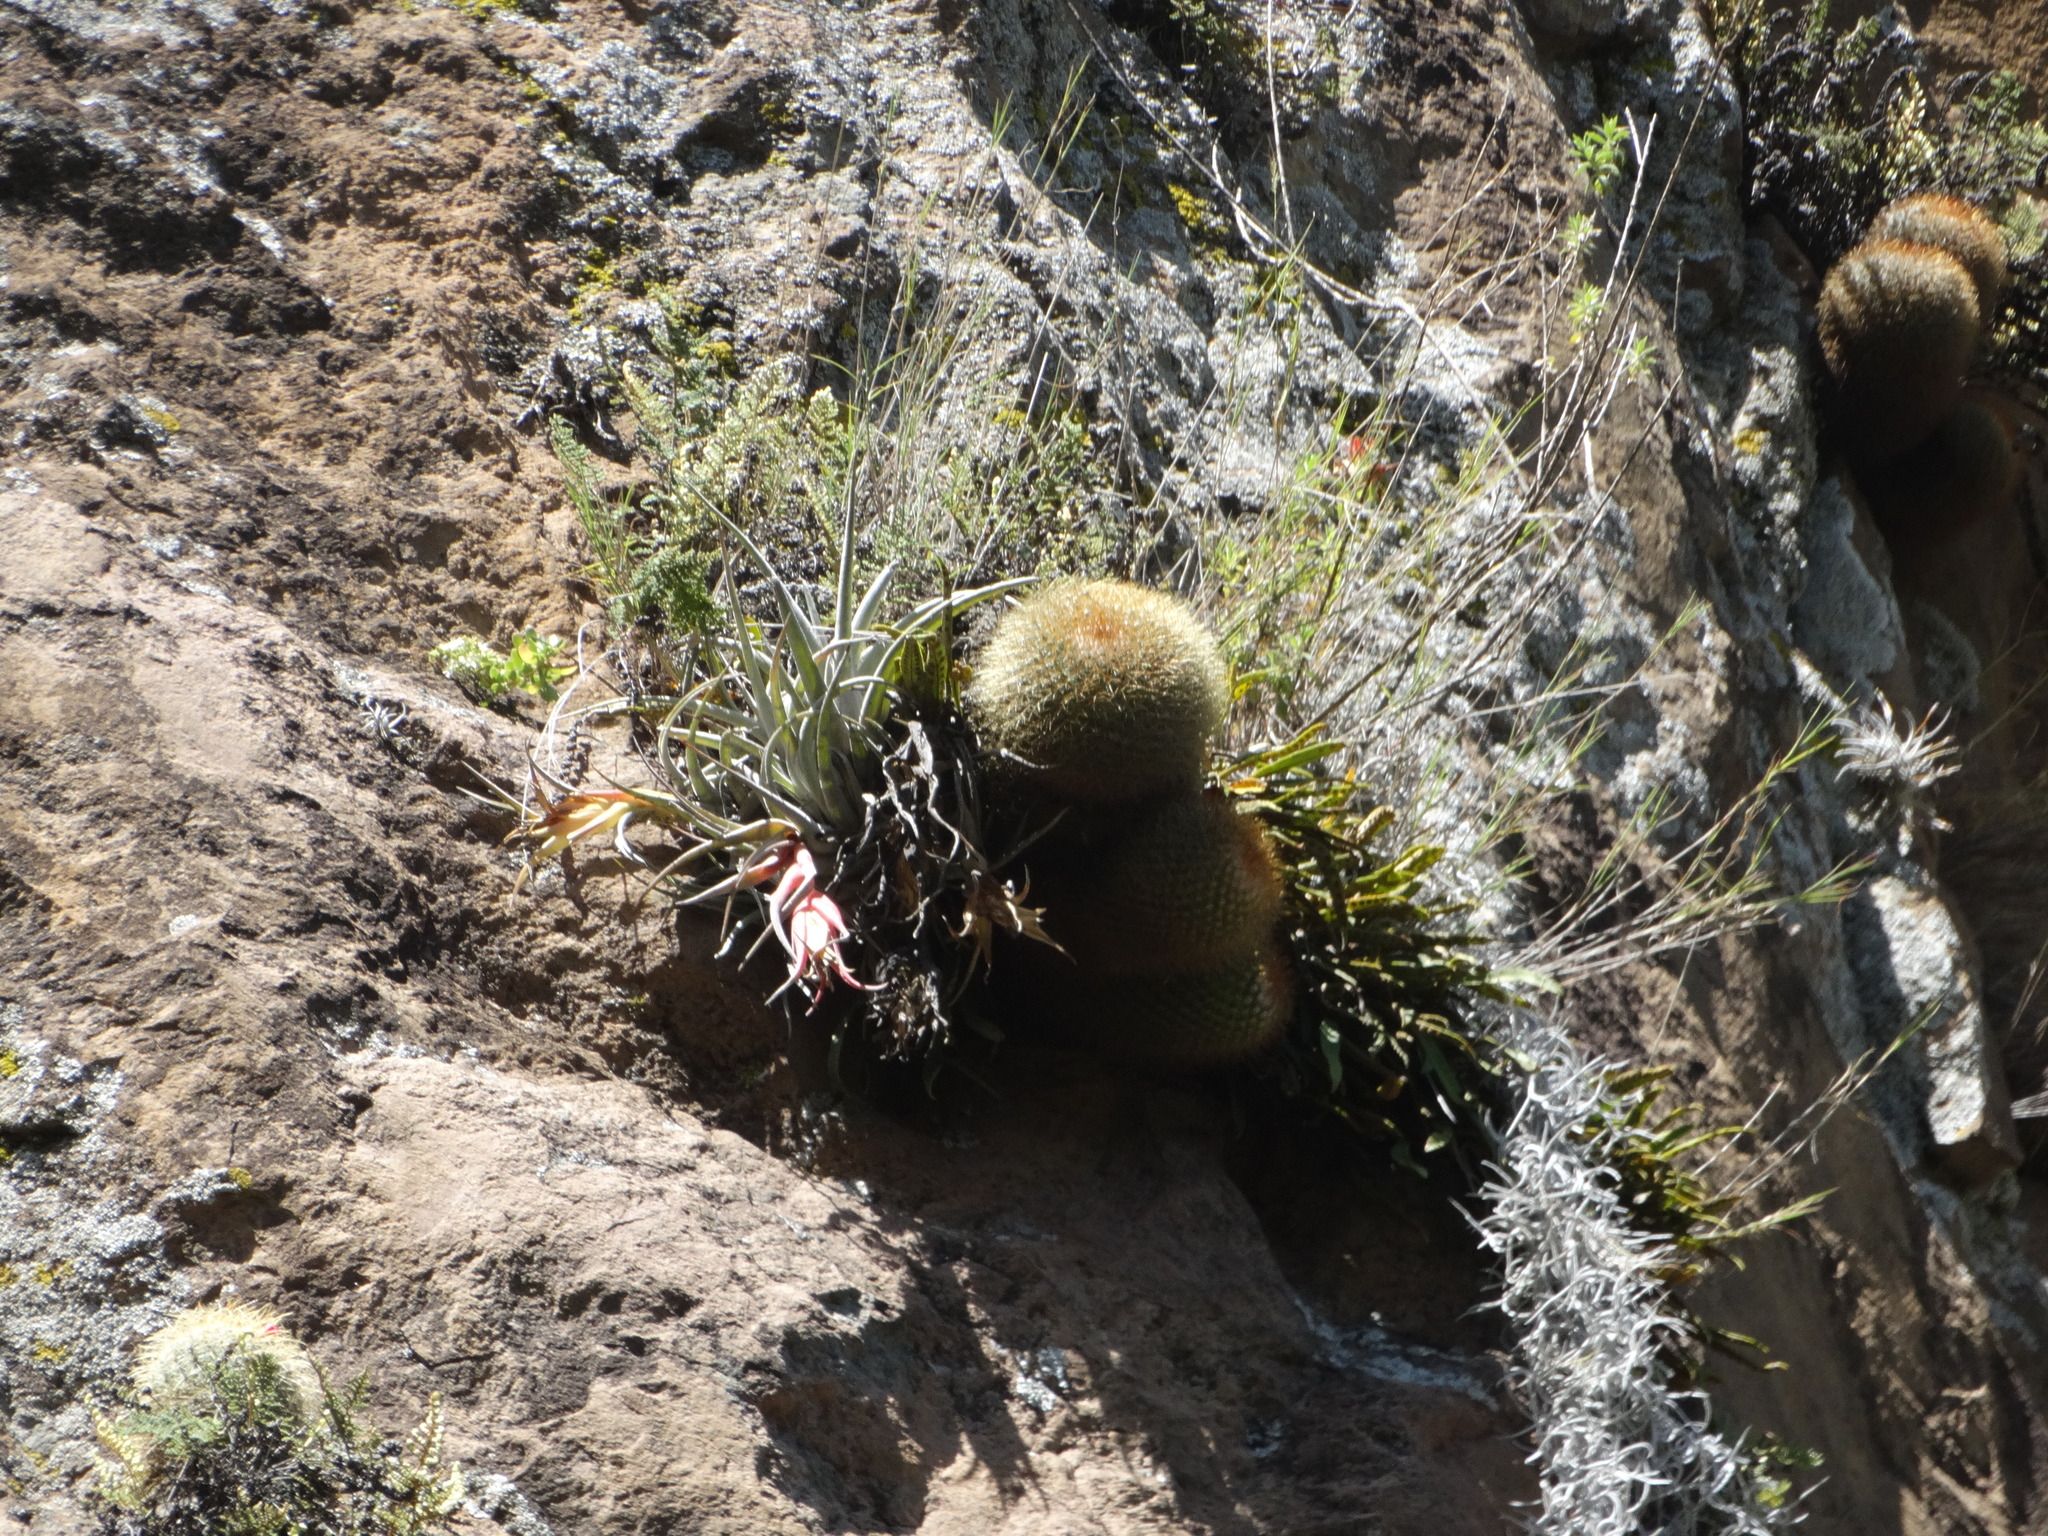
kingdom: Plantae
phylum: Tracheophyta
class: Magnoliopsida
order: Caryophyllales
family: Cactaceae
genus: Mammillaria
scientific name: Mammillaria rhodantha
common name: Rainbow pincushion
